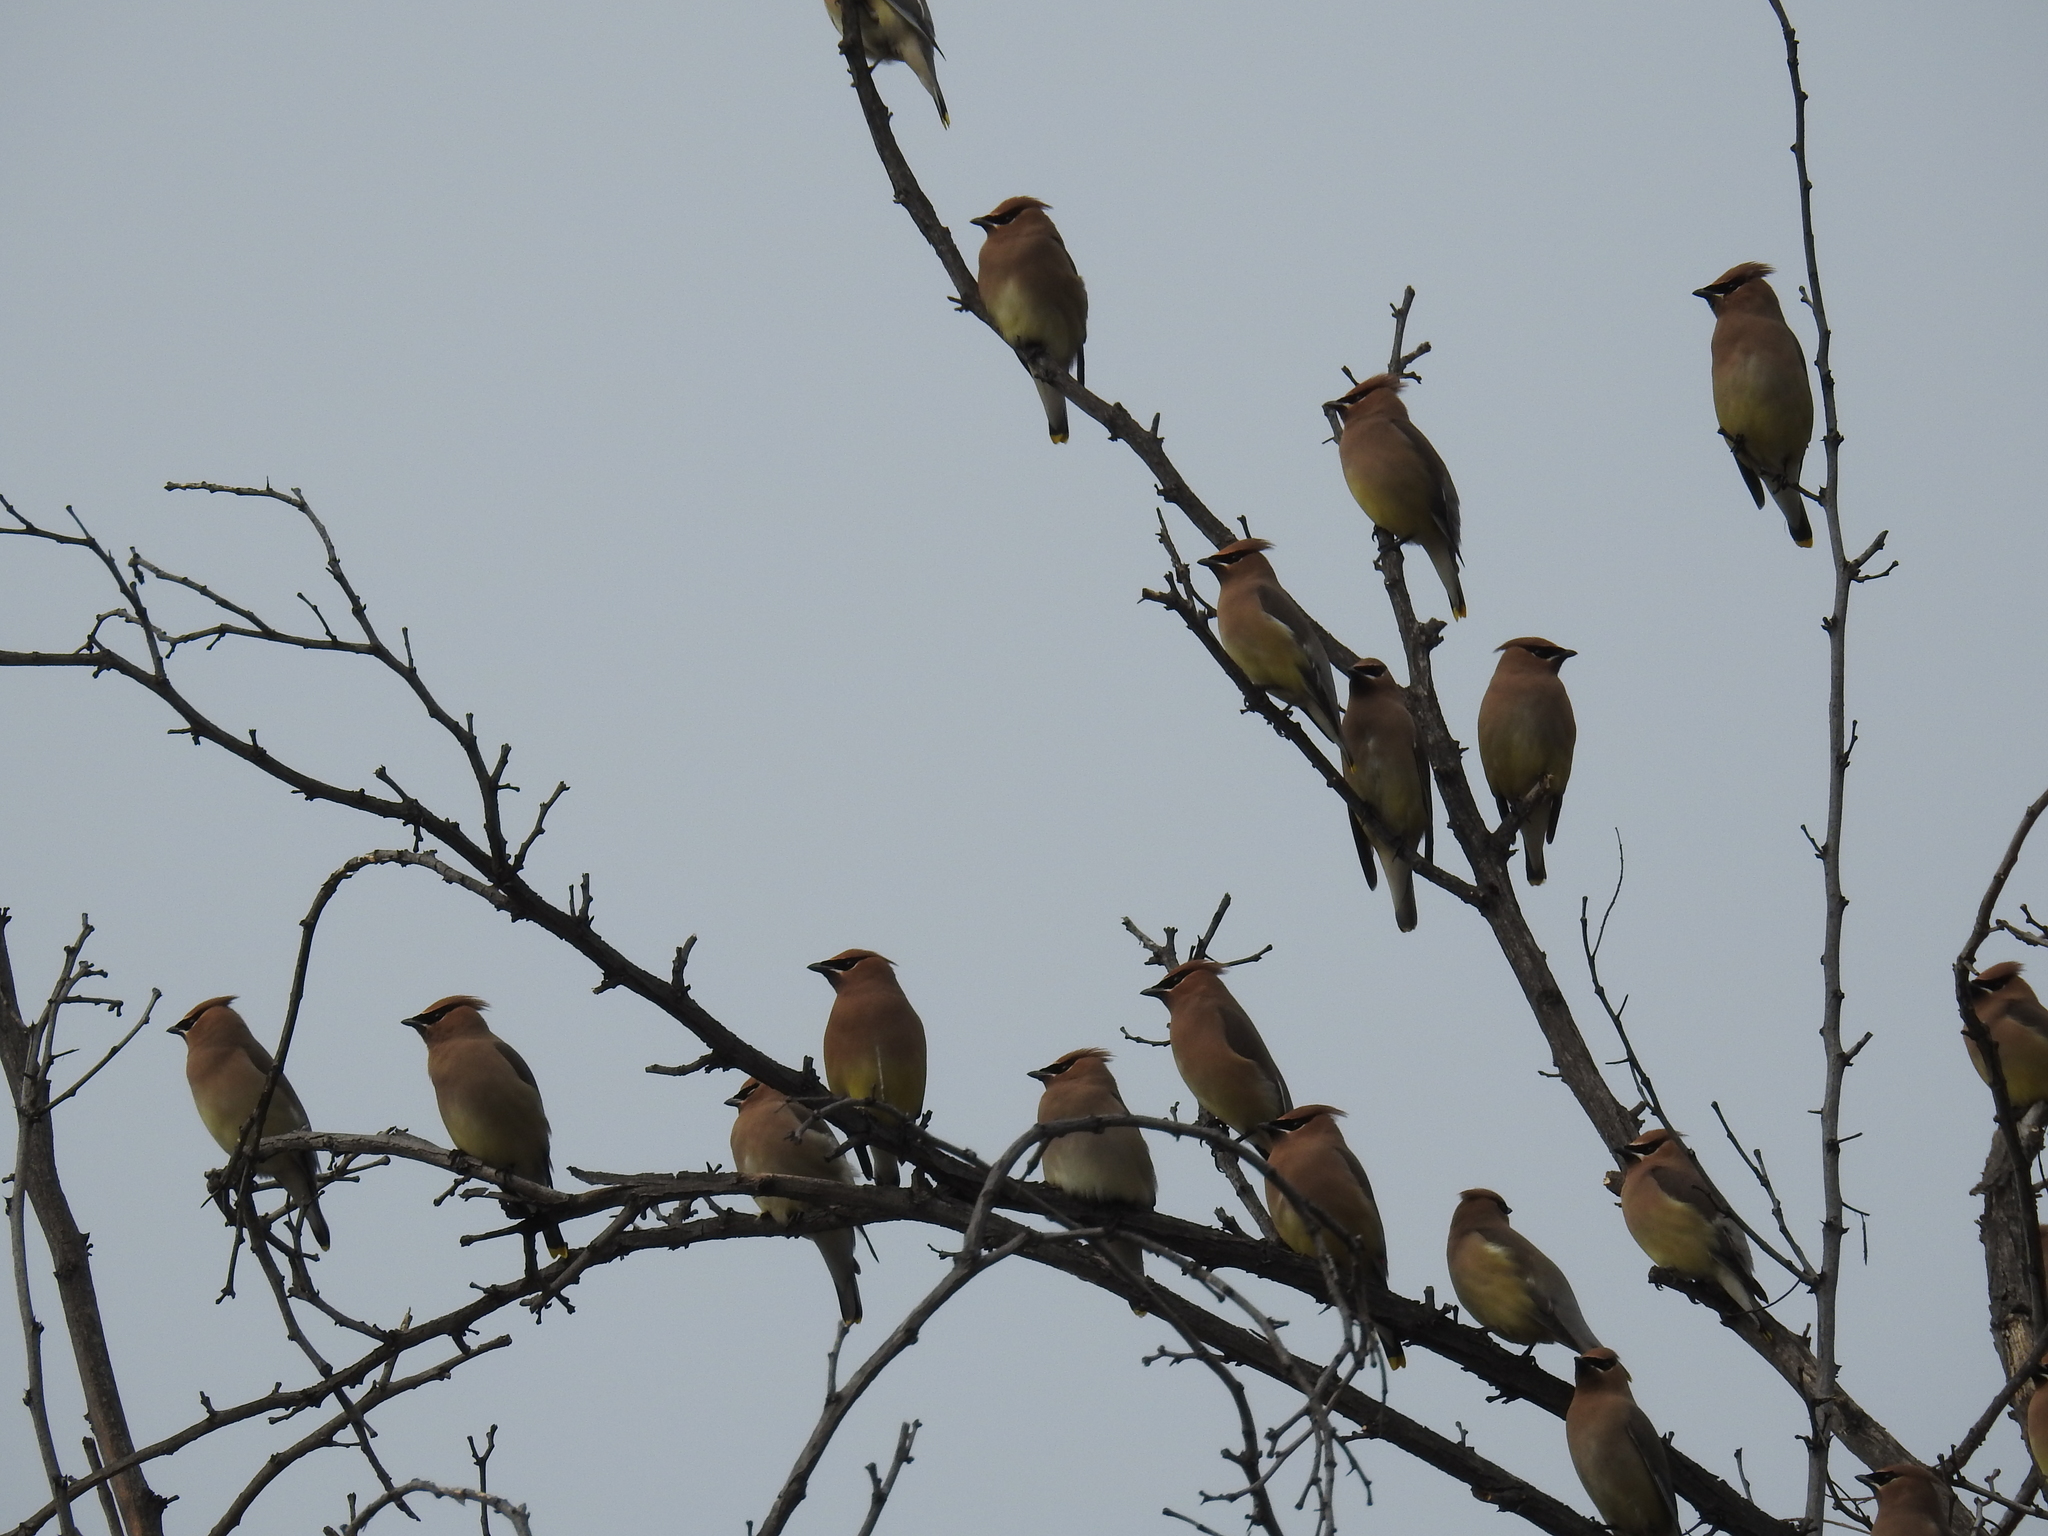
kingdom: Animalia
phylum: Chordata
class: Aves
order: Passeriformes
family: Bombycillidae
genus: Bombycilla
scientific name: Bombycilla cedrorum
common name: Cedar waxwing
